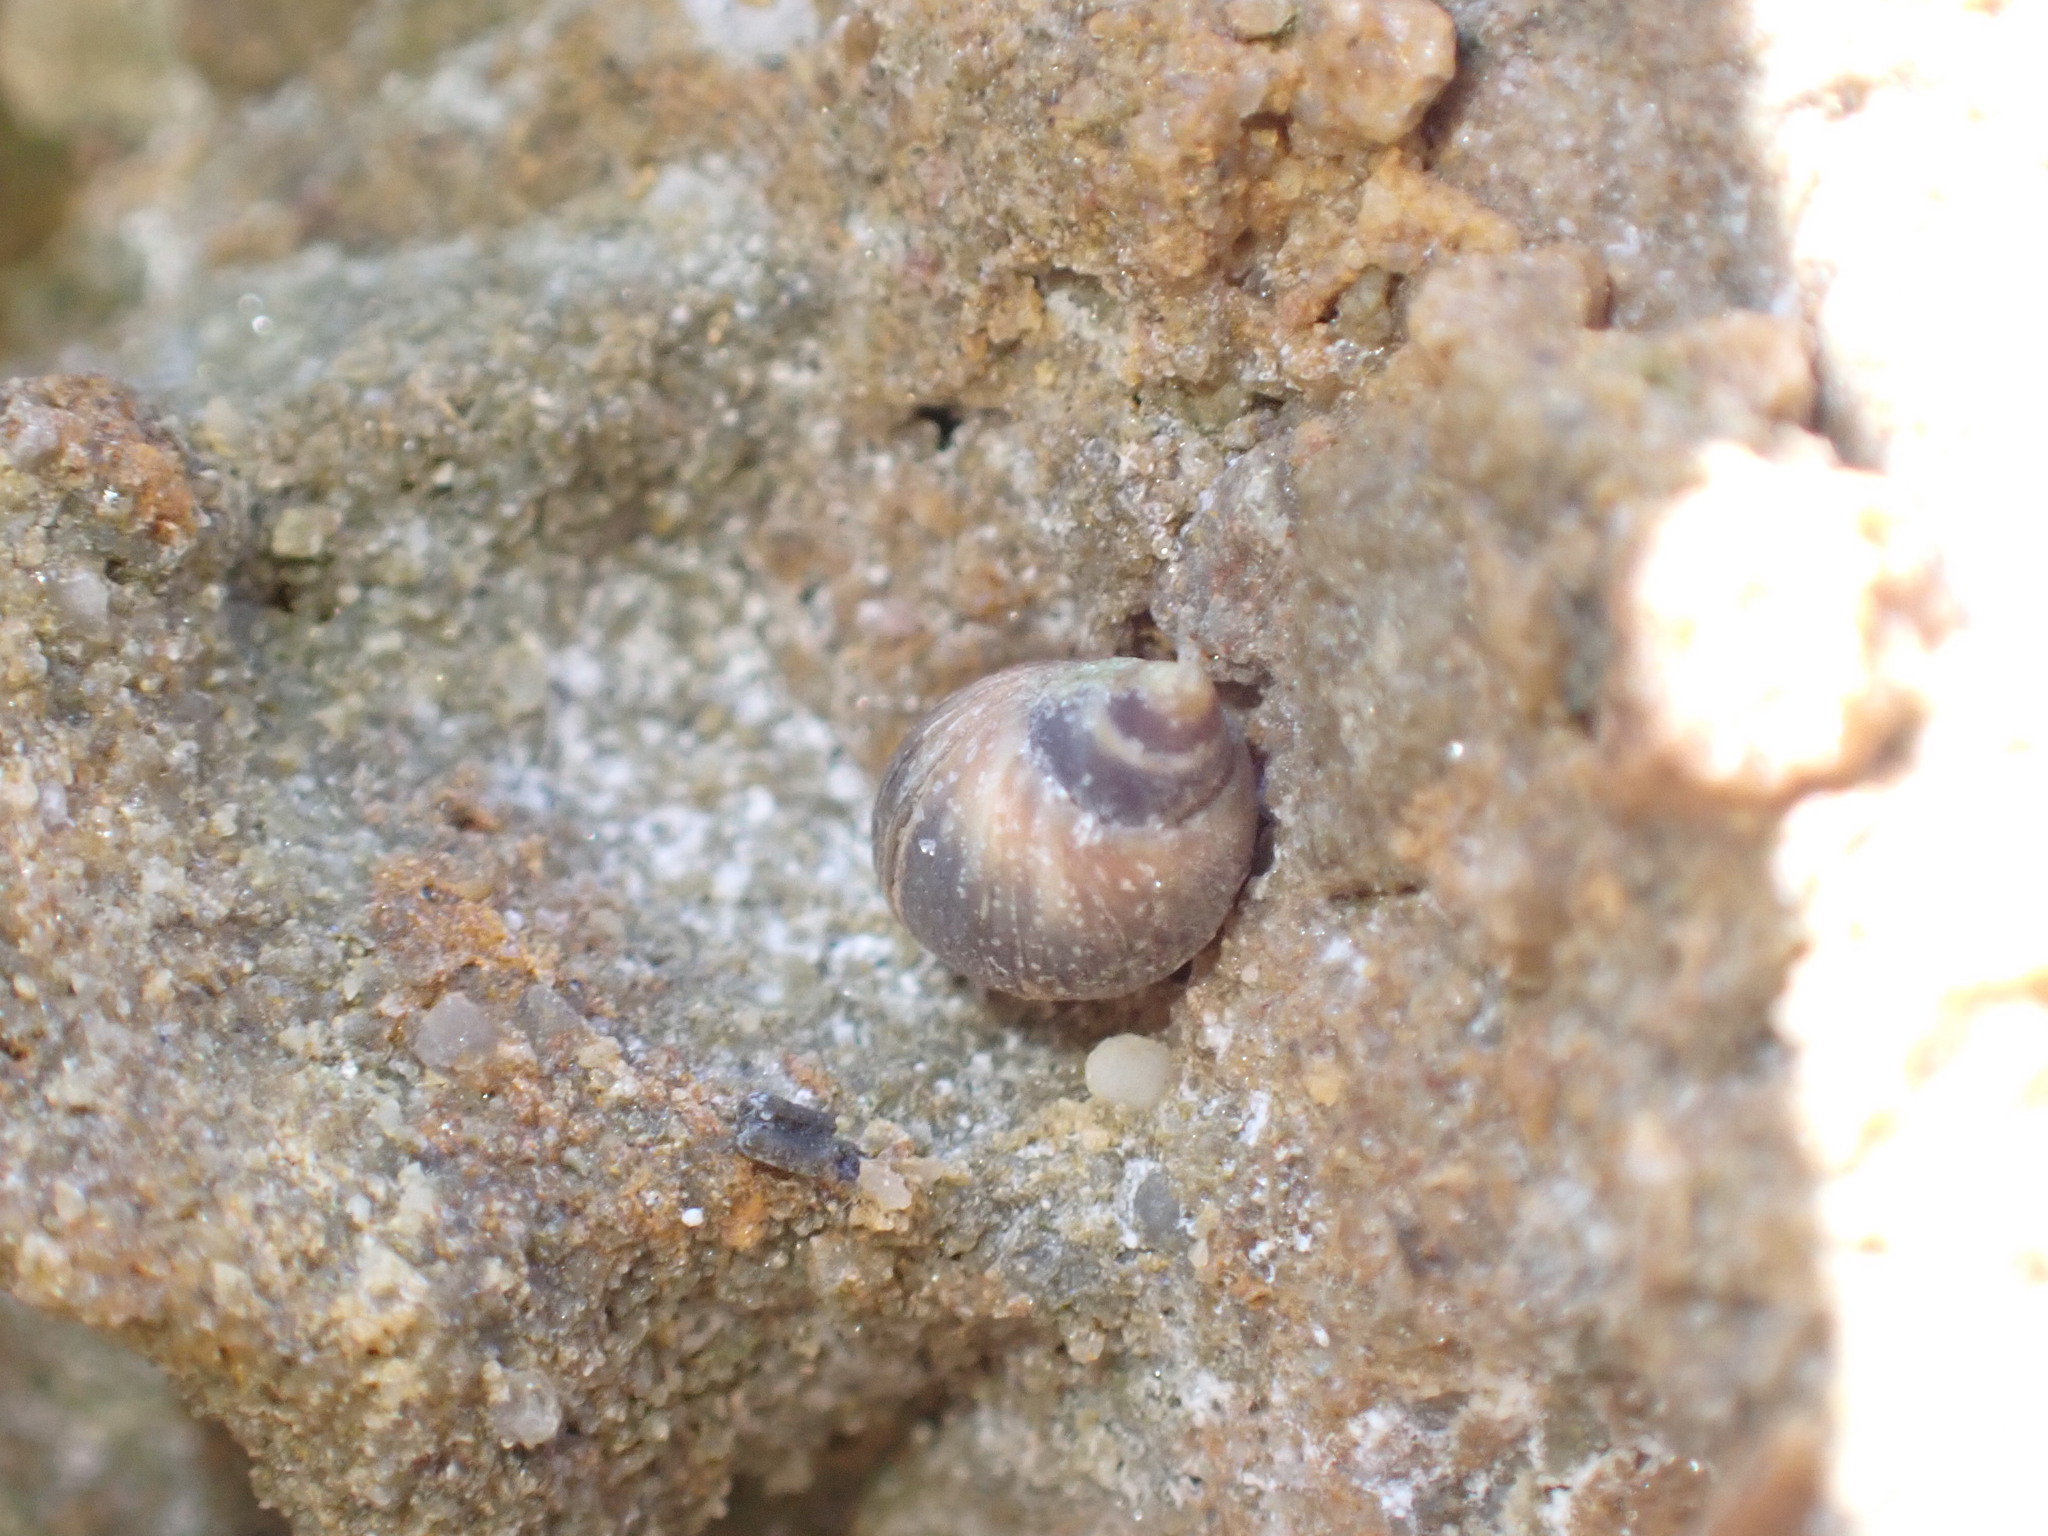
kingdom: Animalia
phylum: Mollusca
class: Gastropoda
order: Littorinimorpha
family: Littorinidae
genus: Melarhaphe
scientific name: Melarhaphe neritoides
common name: Small periwinkle
